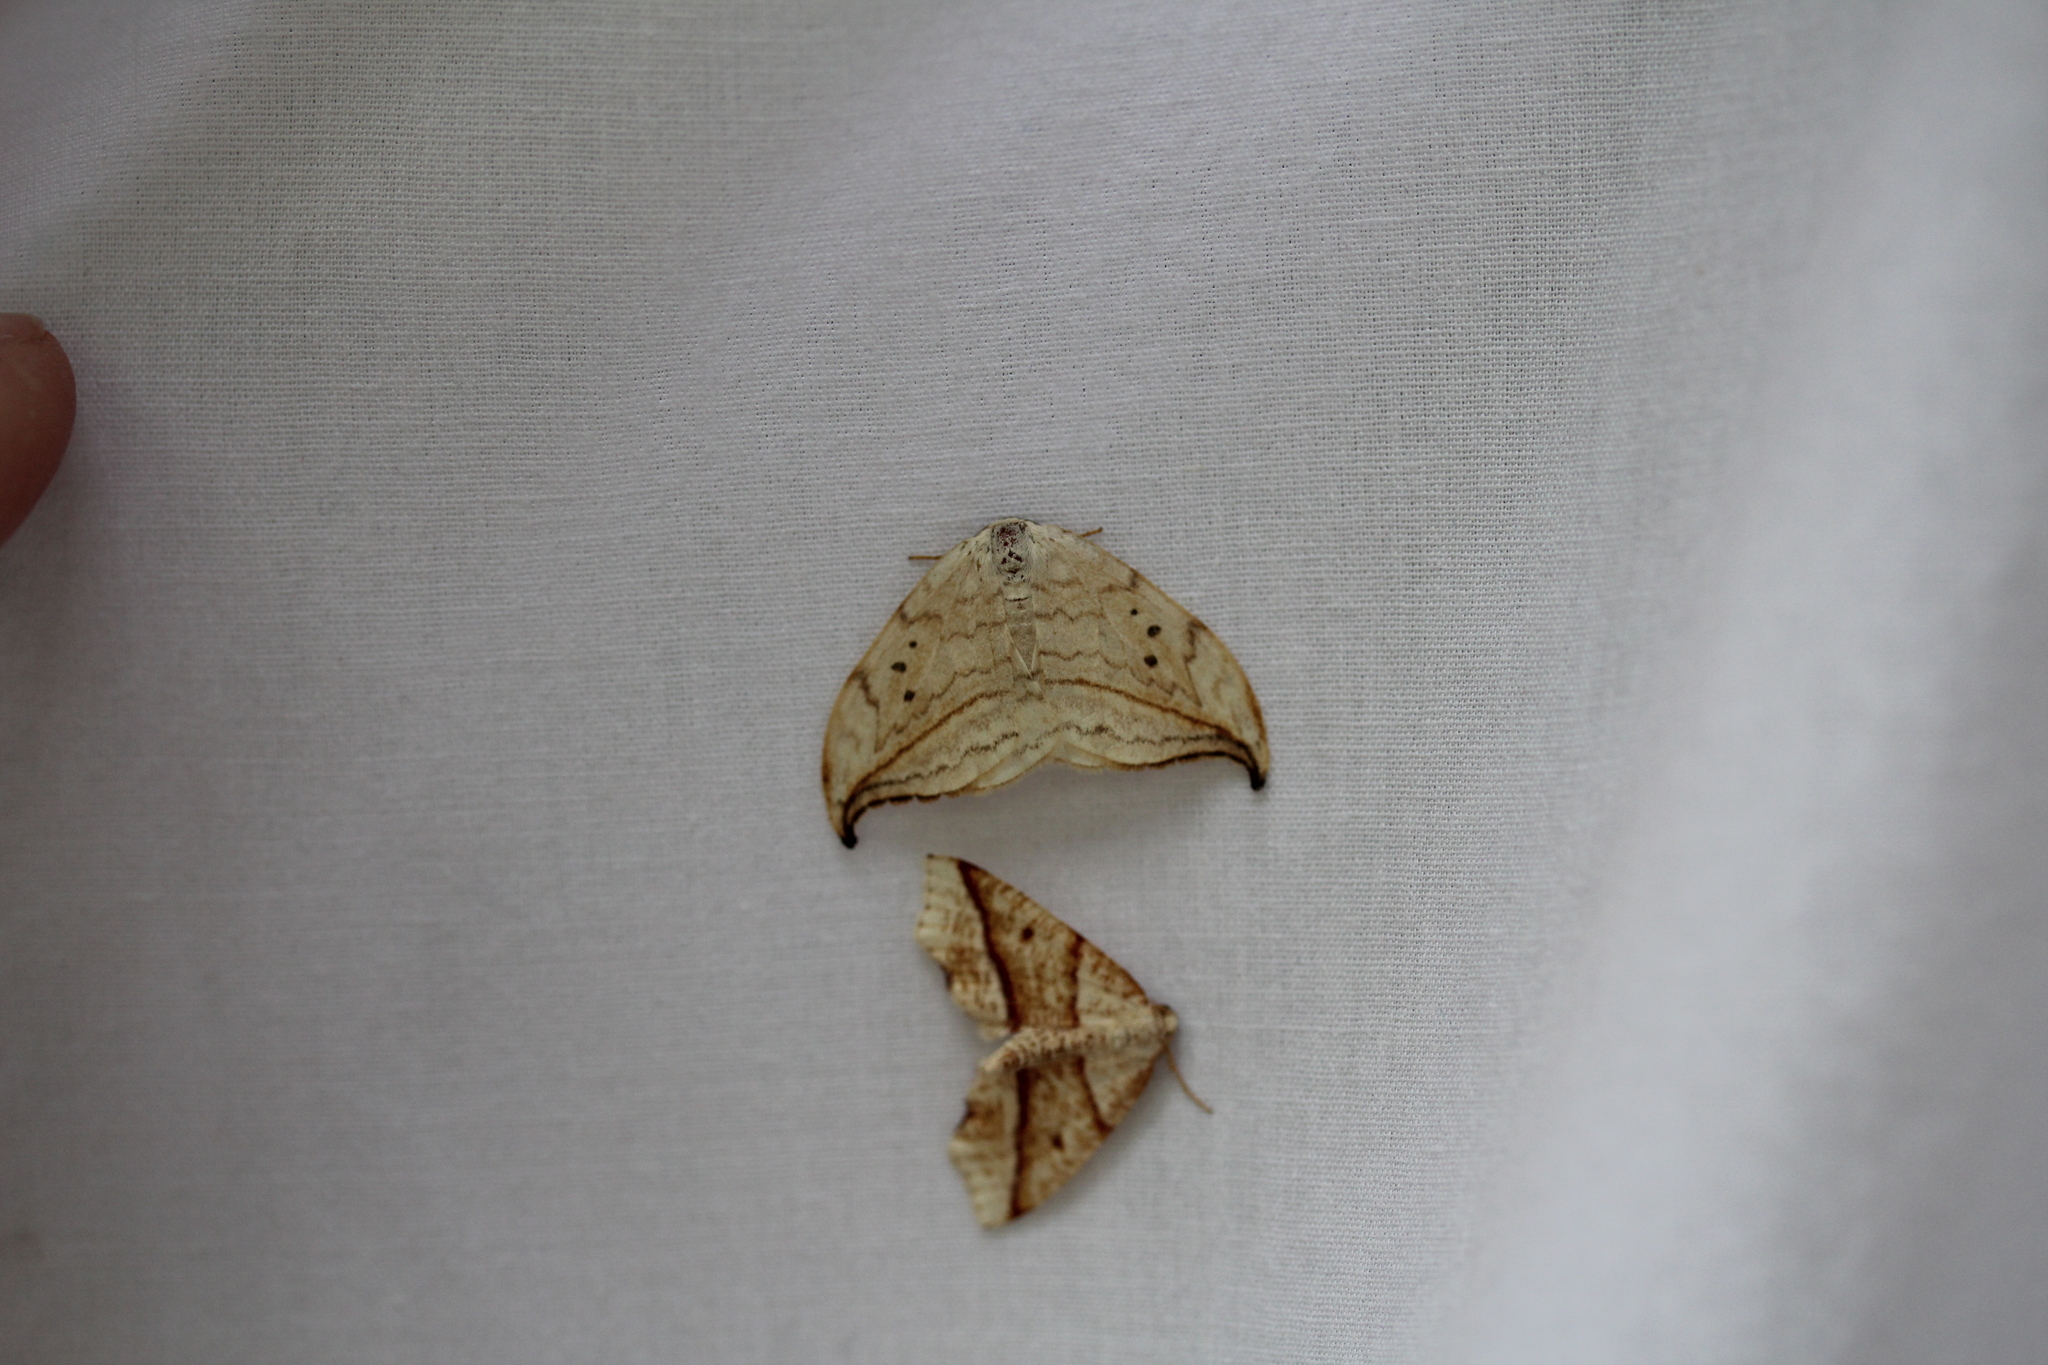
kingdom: Animalia
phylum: Arthropoda
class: Insecta
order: Lepidoptera
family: Geometridae
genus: Plagodis
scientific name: Plagodis alcoolaria
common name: Hollow-spotted plagodis
